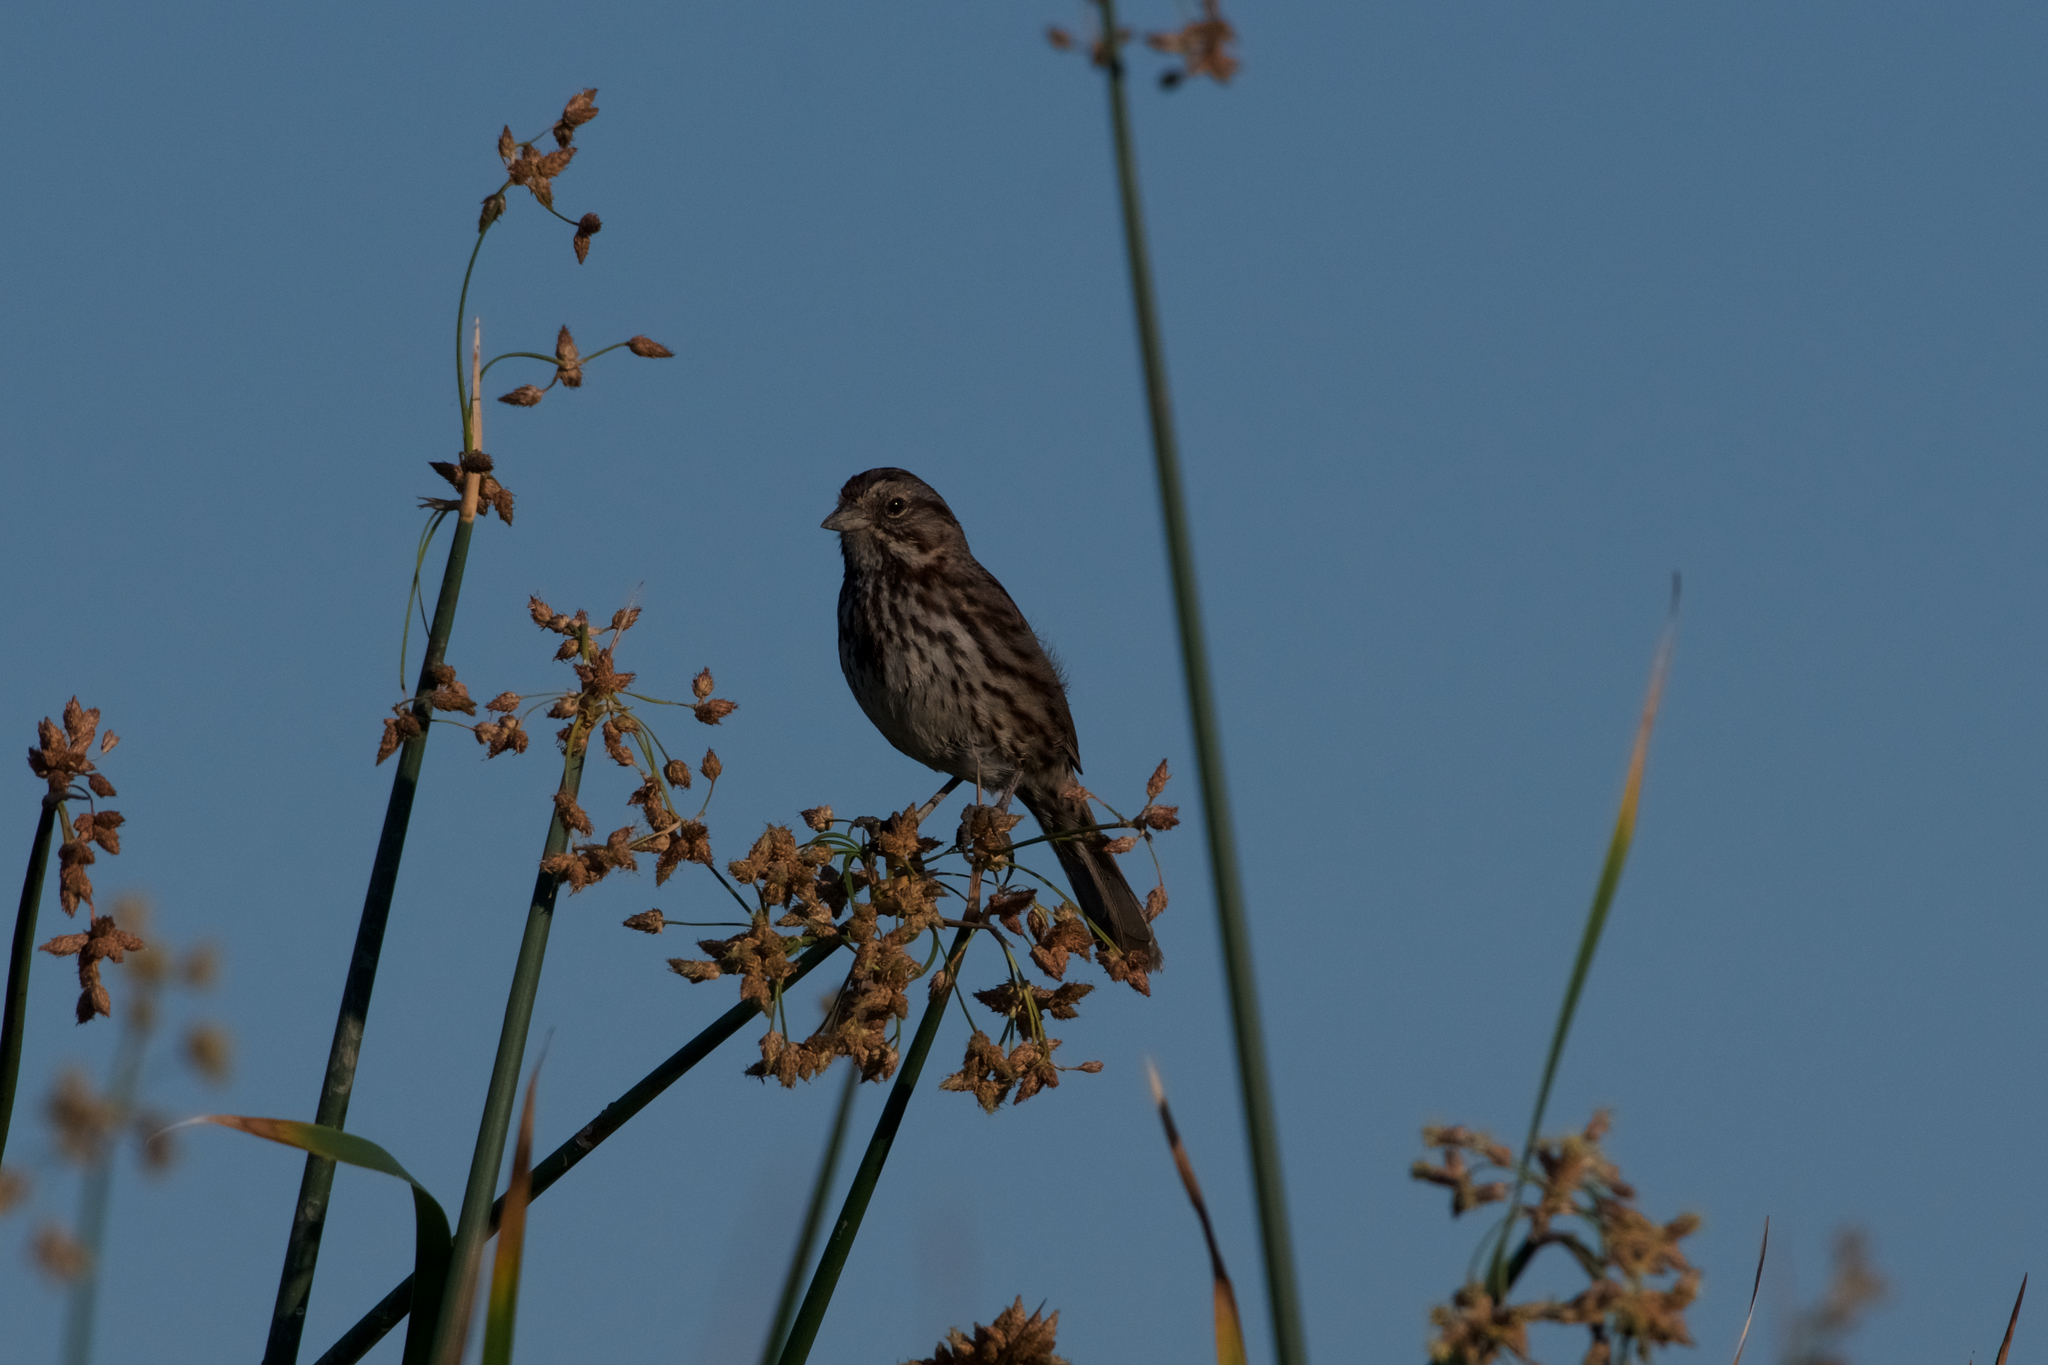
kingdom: Animalia
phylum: Chordata
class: Aves
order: Passeriformes
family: Passerellidae
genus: Melospiza
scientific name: Melospiza melodia
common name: Song sparrow
